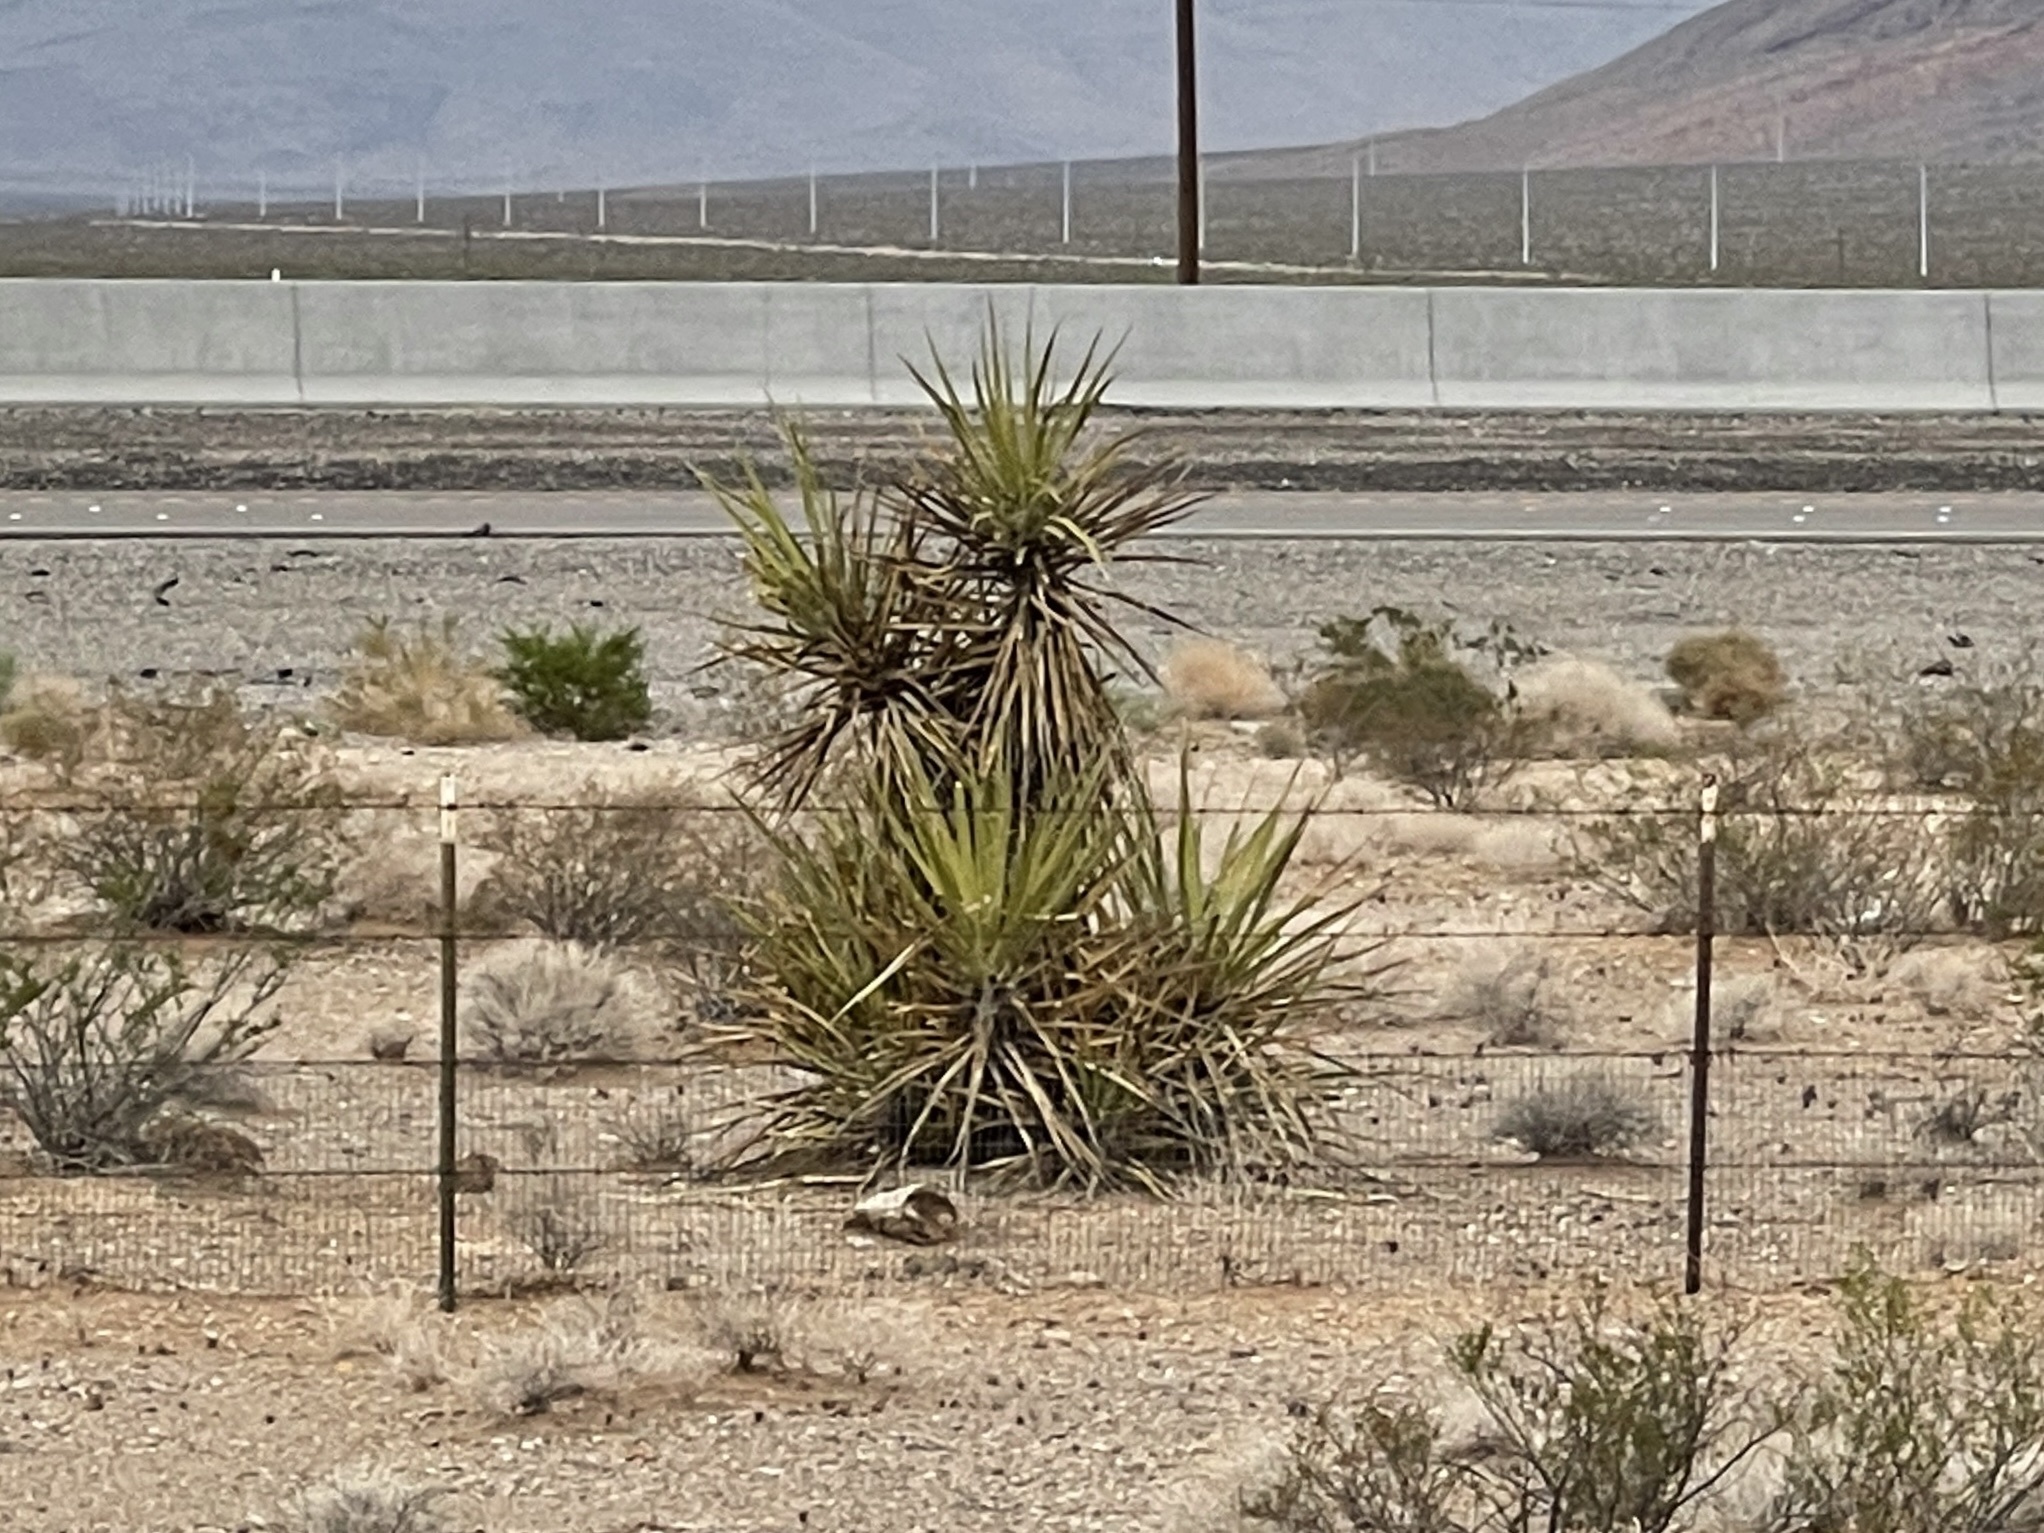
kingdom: Plantae
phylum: Tracheophyta
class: Liliopsida
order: Asparagales
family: Asparagaceae
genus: Yucca
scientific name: Yucca schidigera
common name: Mojave yucca
